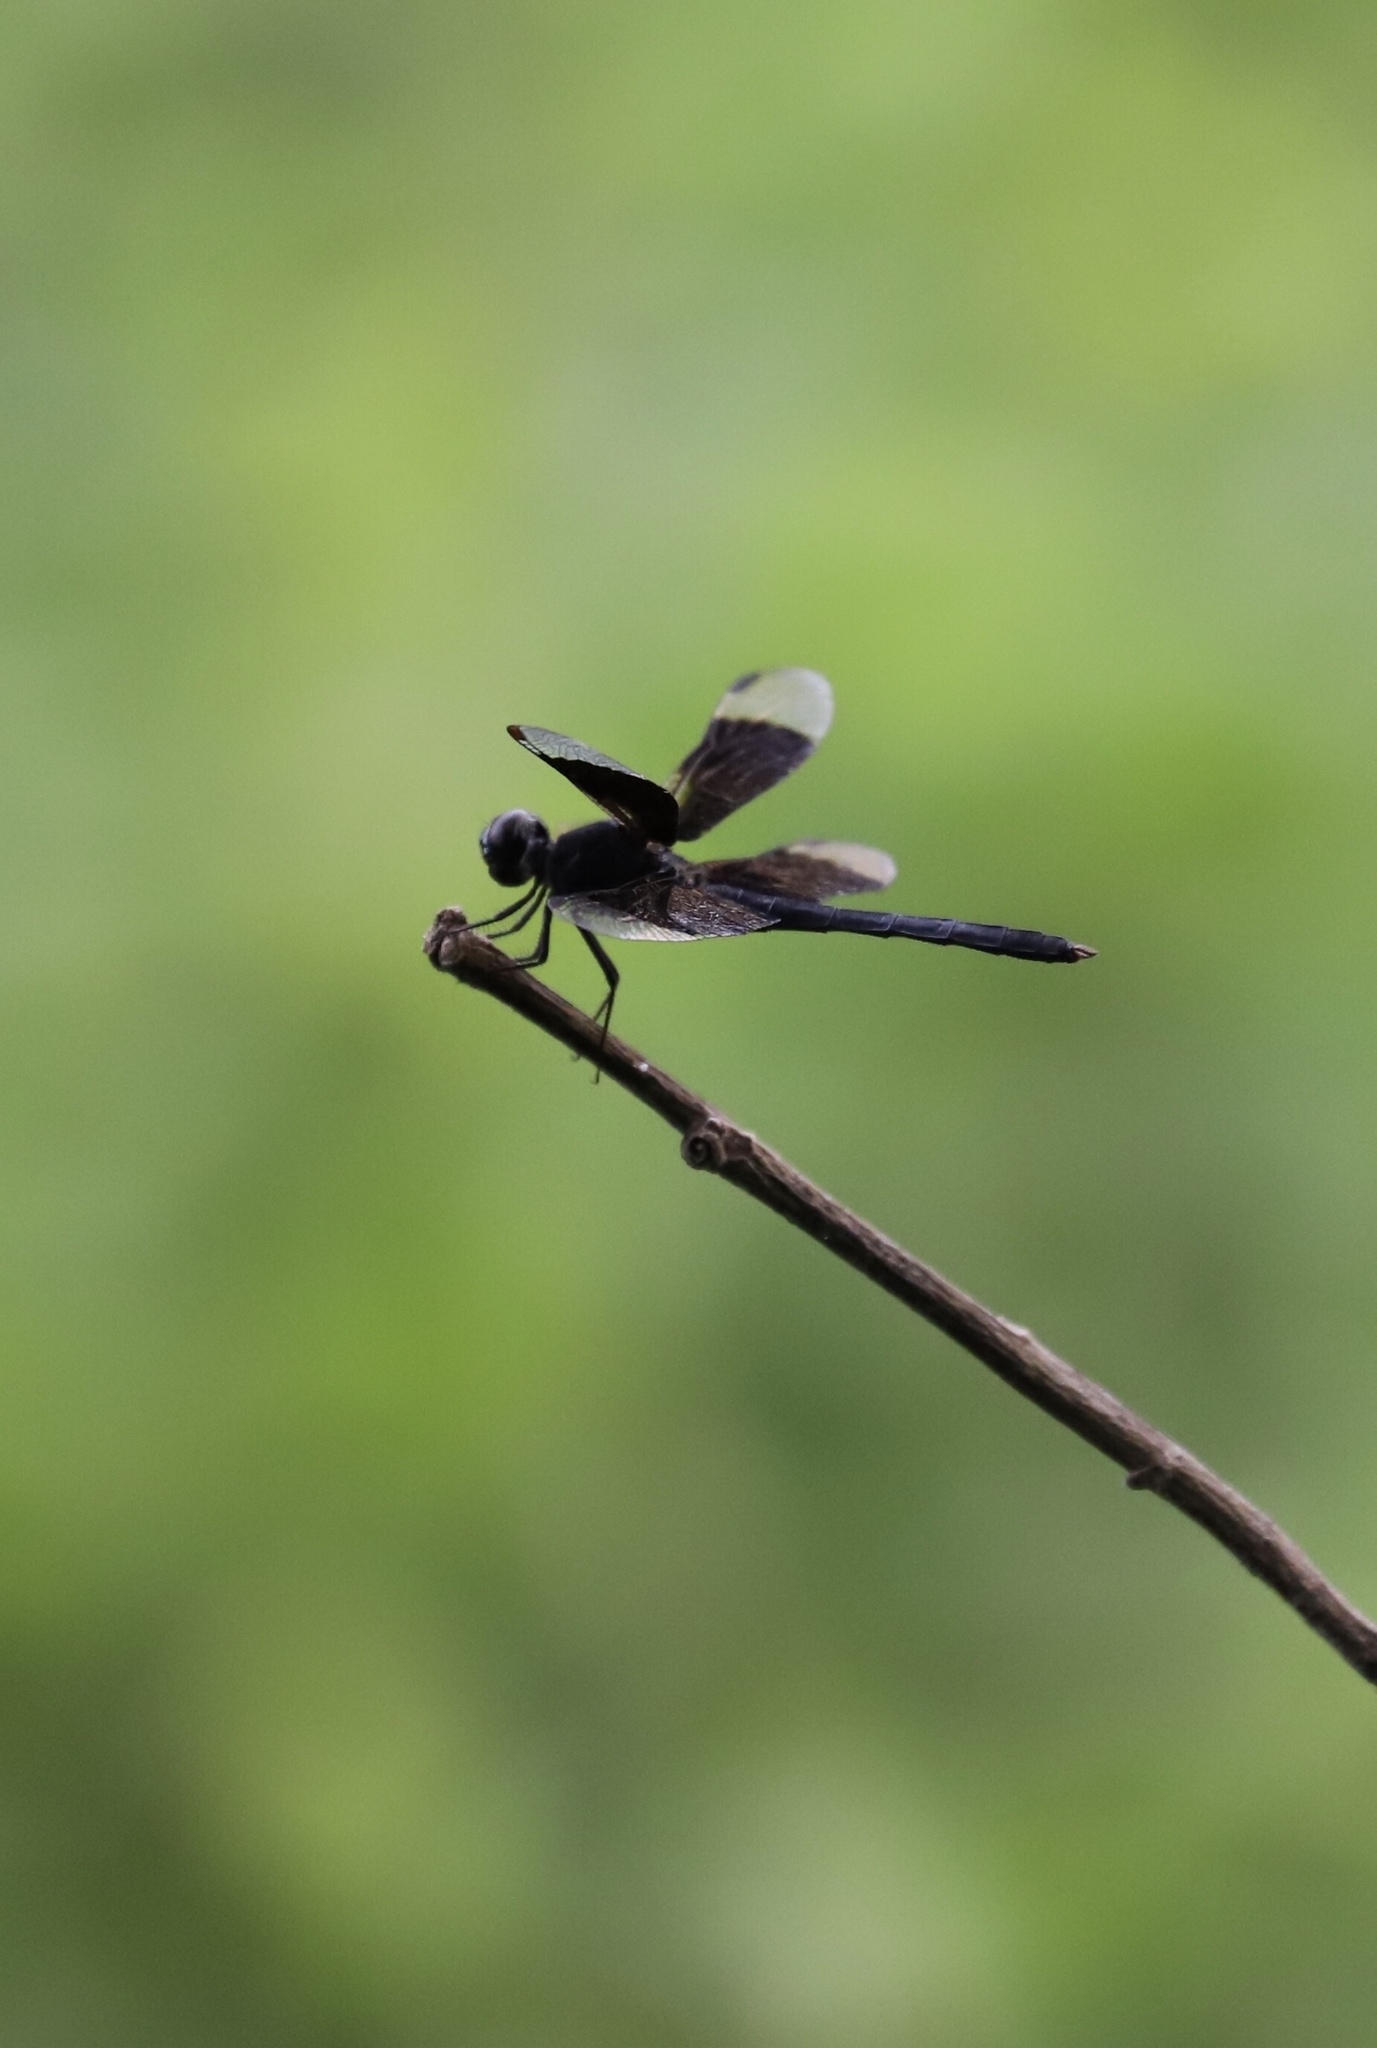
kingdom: Animalia
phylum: Arthropoda
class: Insecta
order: Odonata
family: Libellulidae
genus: Erythrodiplax
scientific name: Erythrodiplax funerea
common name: Black-winged dragonlet
